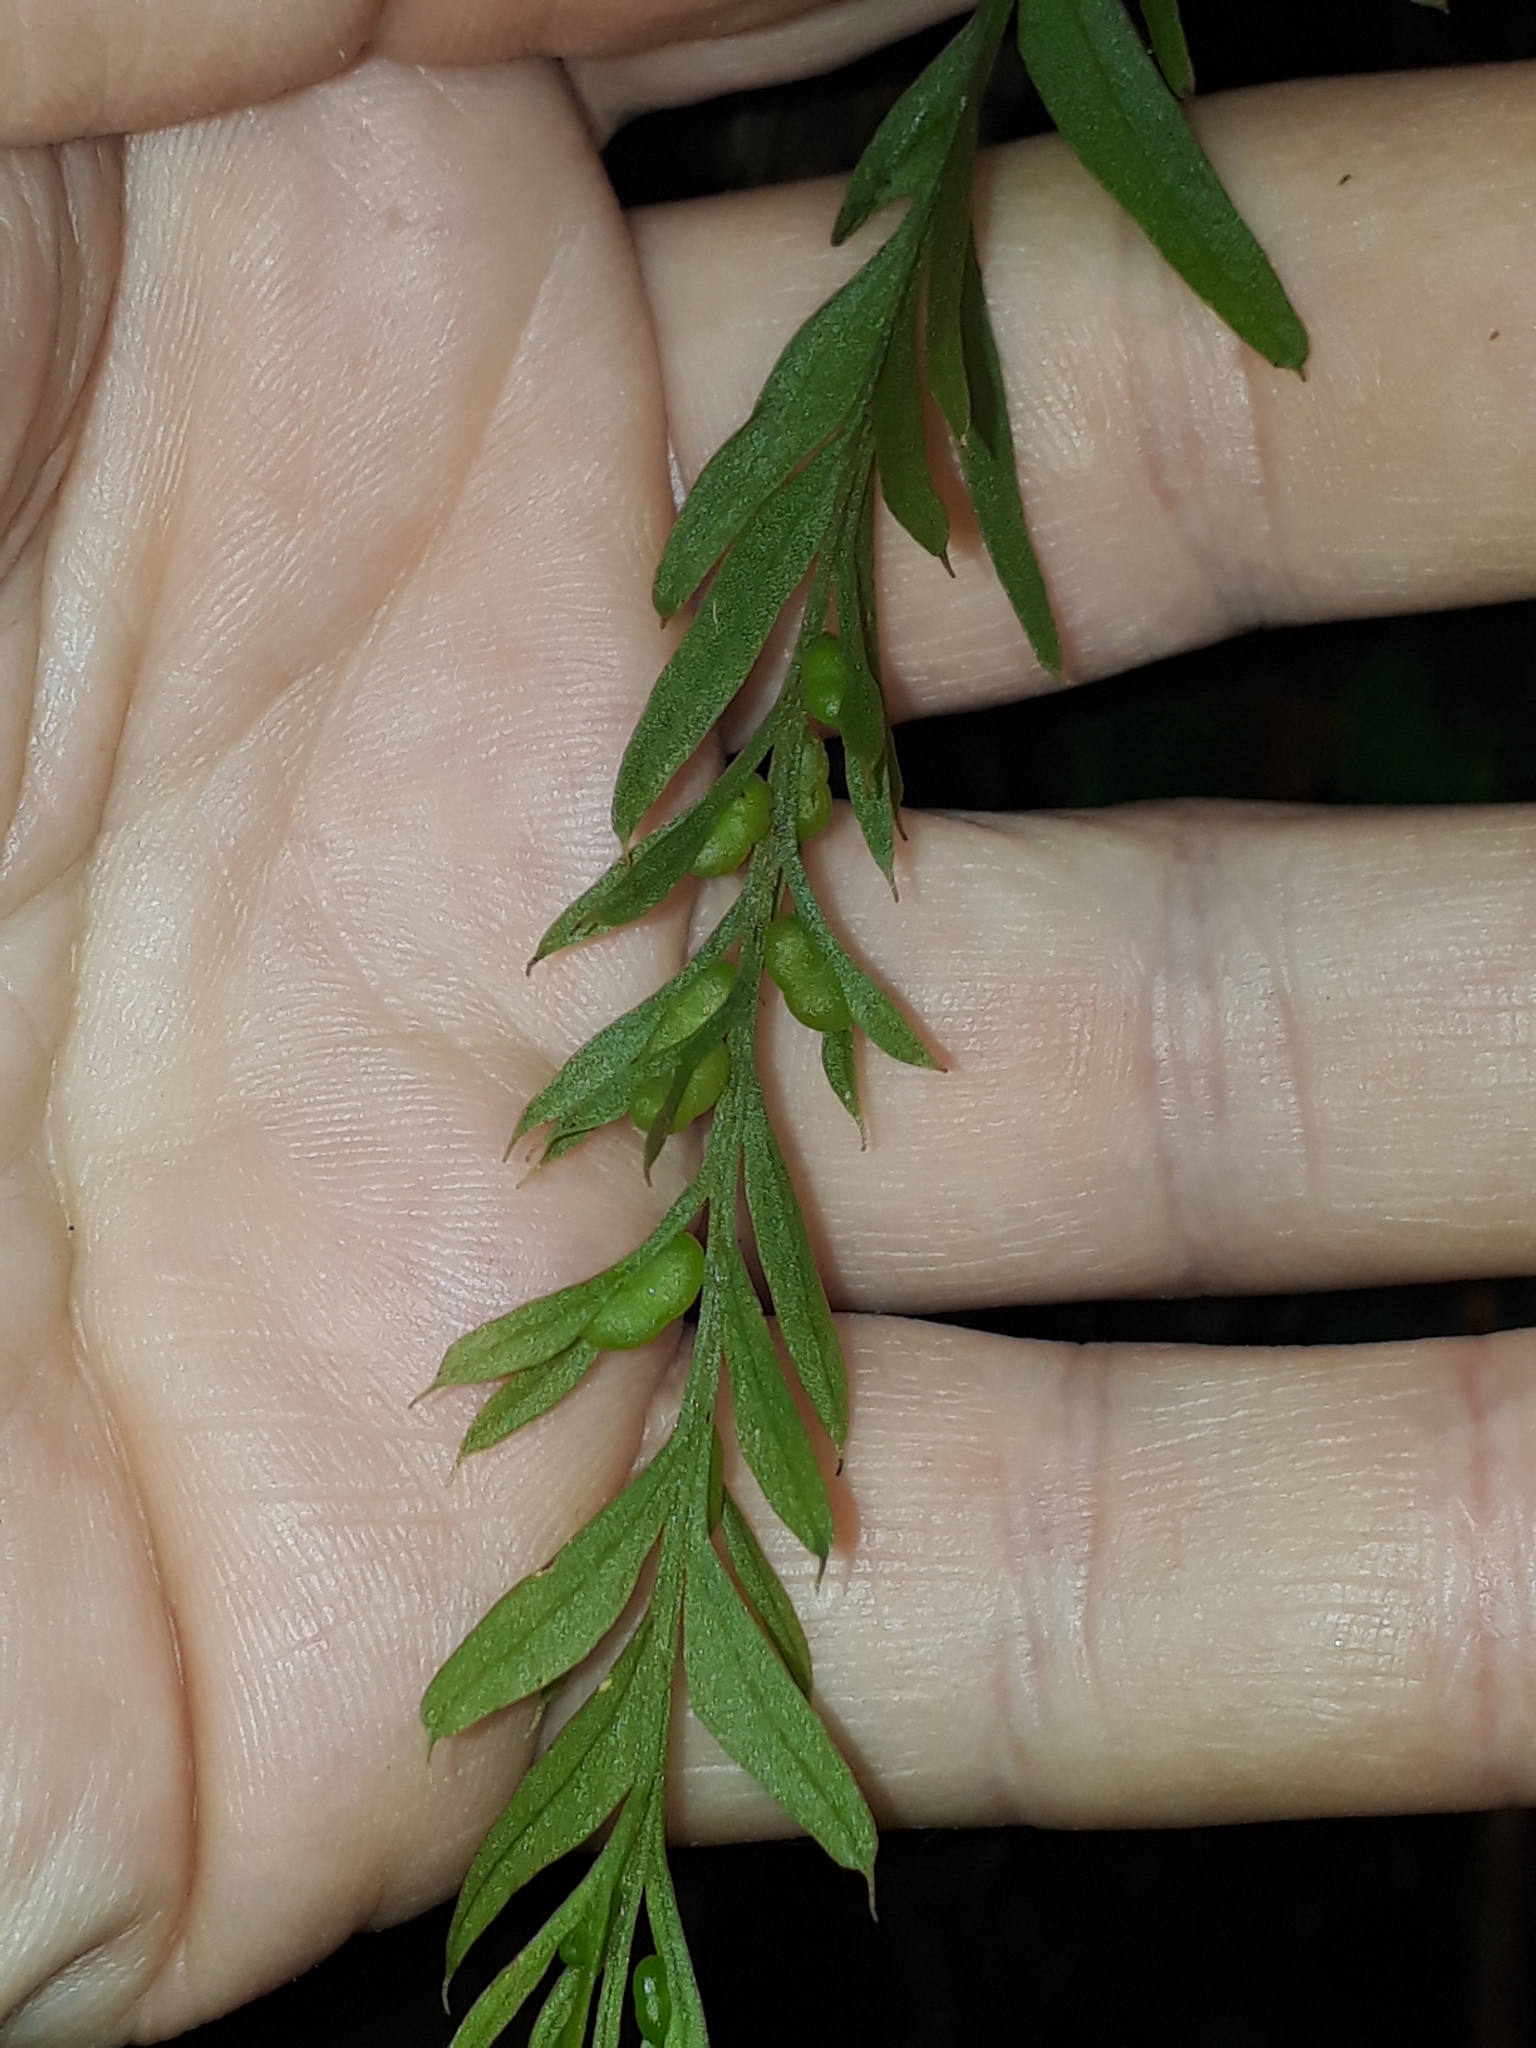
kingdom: Plantae
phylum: Tracheophyta
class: Polypodiopsida
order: Psilotales
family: Psilotaceae
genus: Tmesipteris
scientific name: Tmesipteris elongata
